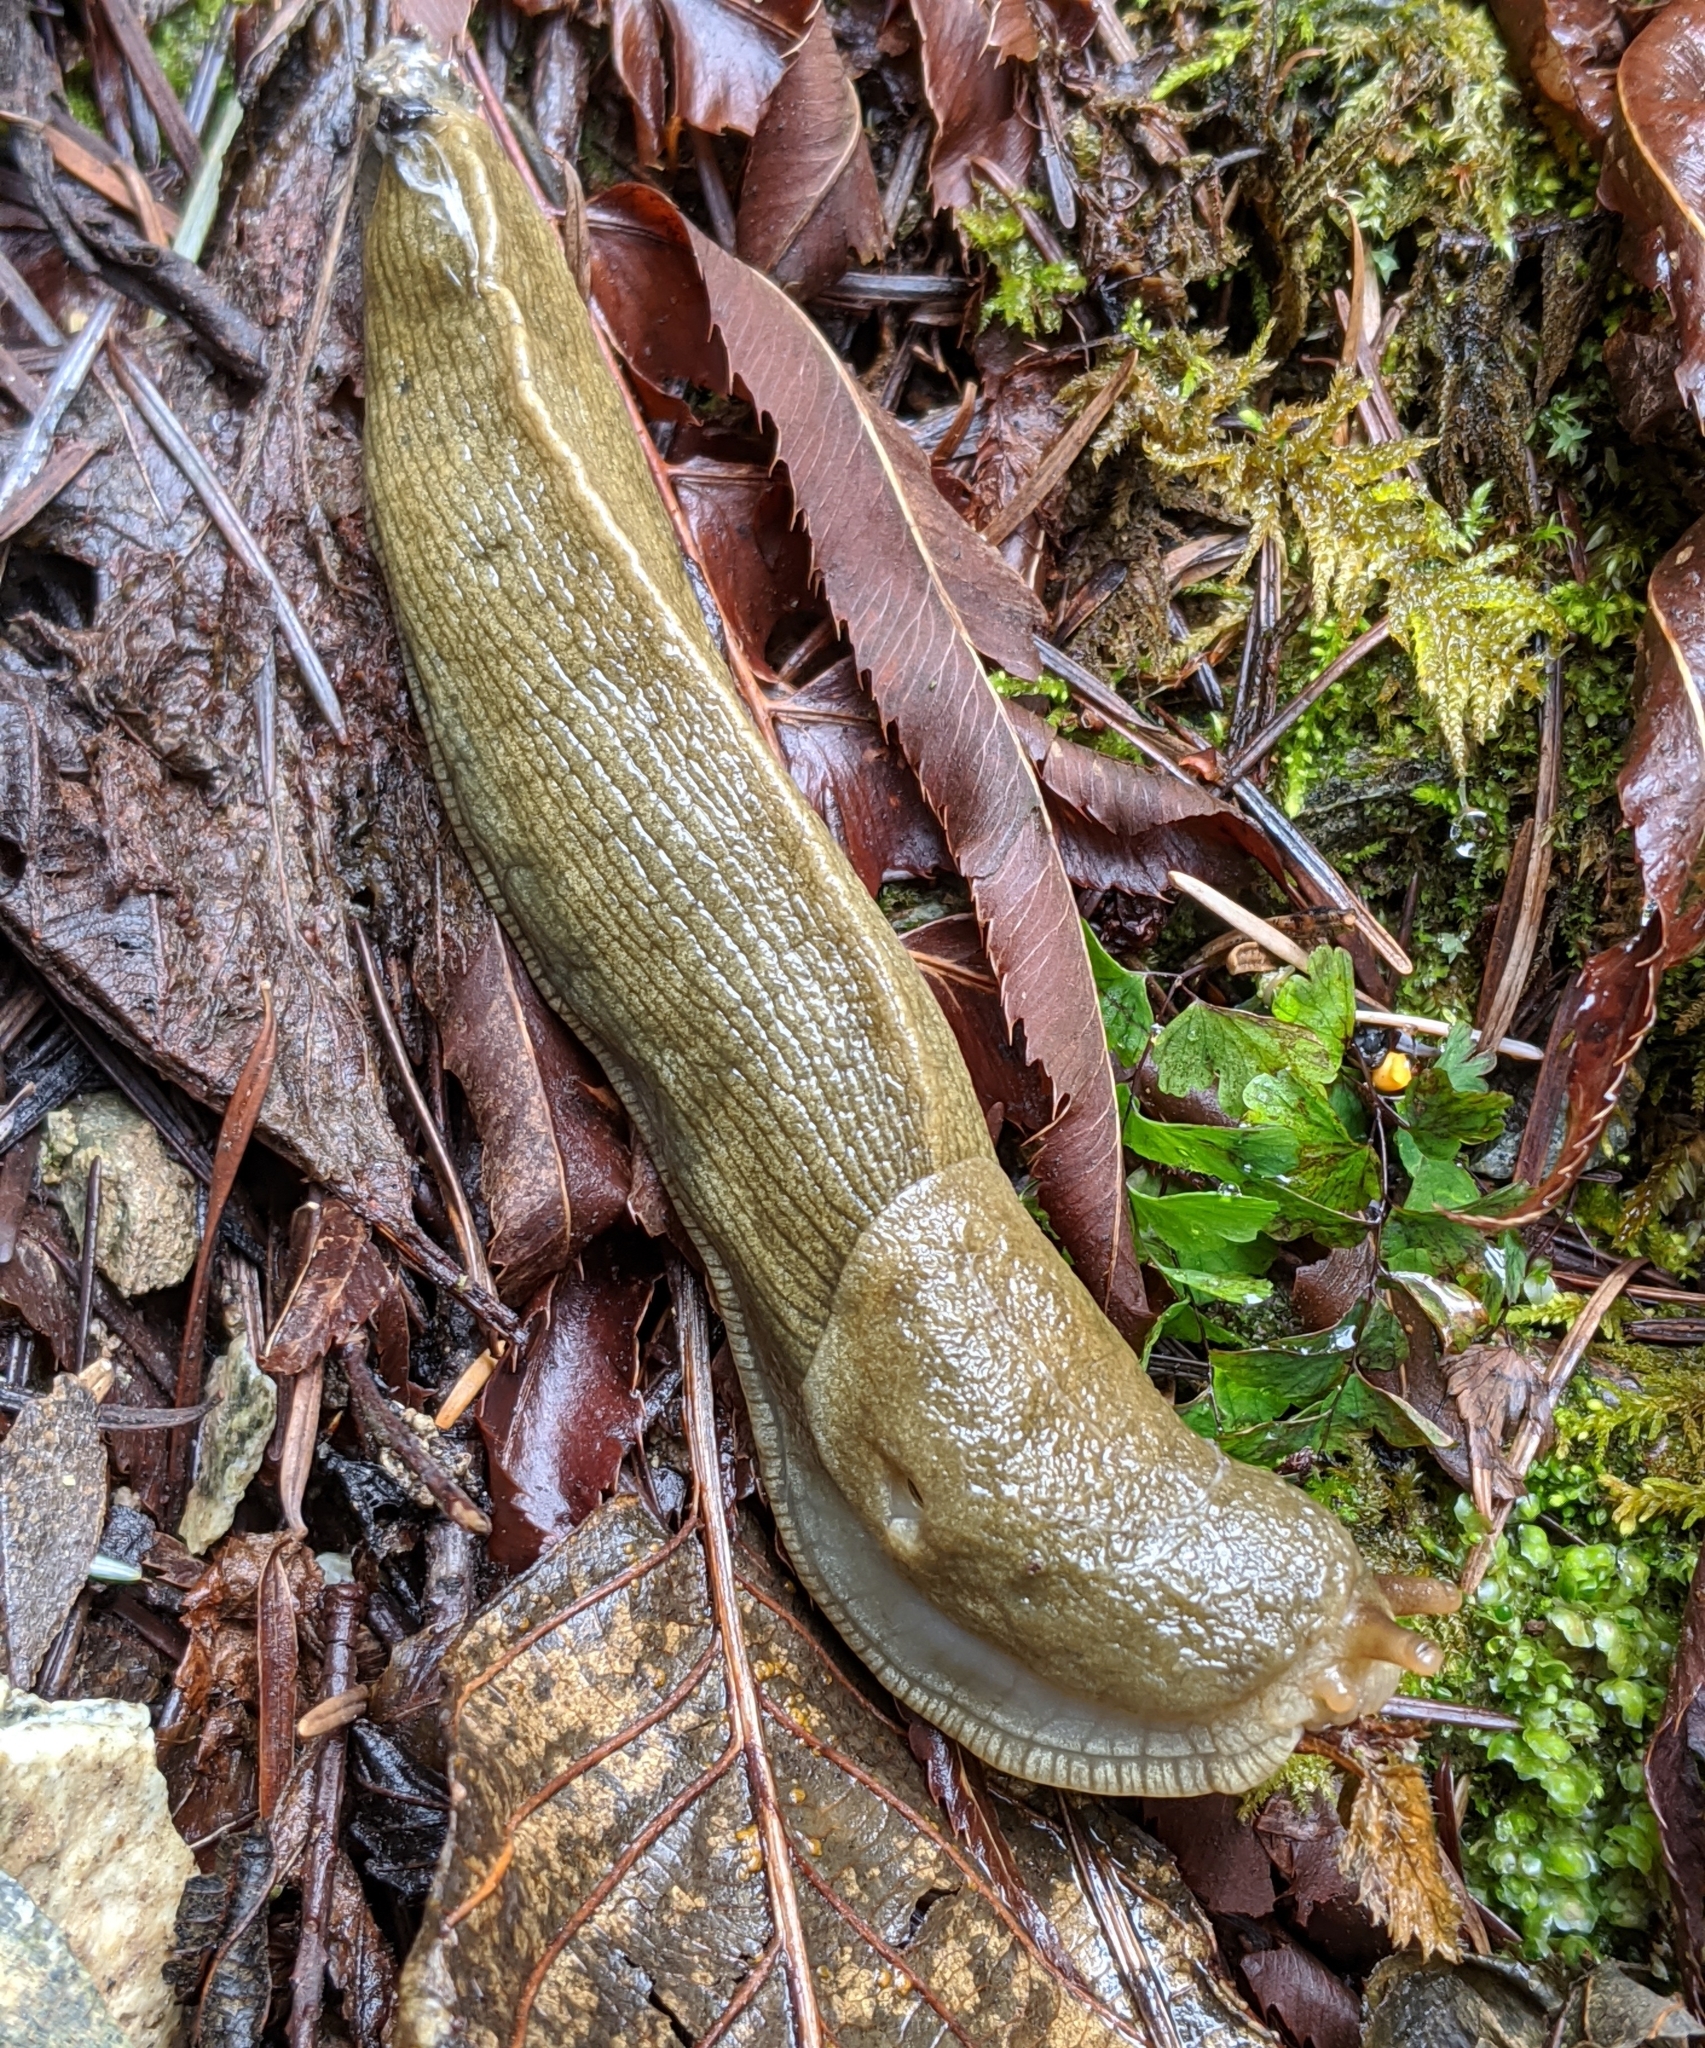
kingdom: Animalia
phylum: Mollusca
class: Gastropoda
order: Stylommatophora
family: Ariolimacidae
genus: Ariolimax
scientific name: Ariolimax columbianus
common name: Pacific banana slug
